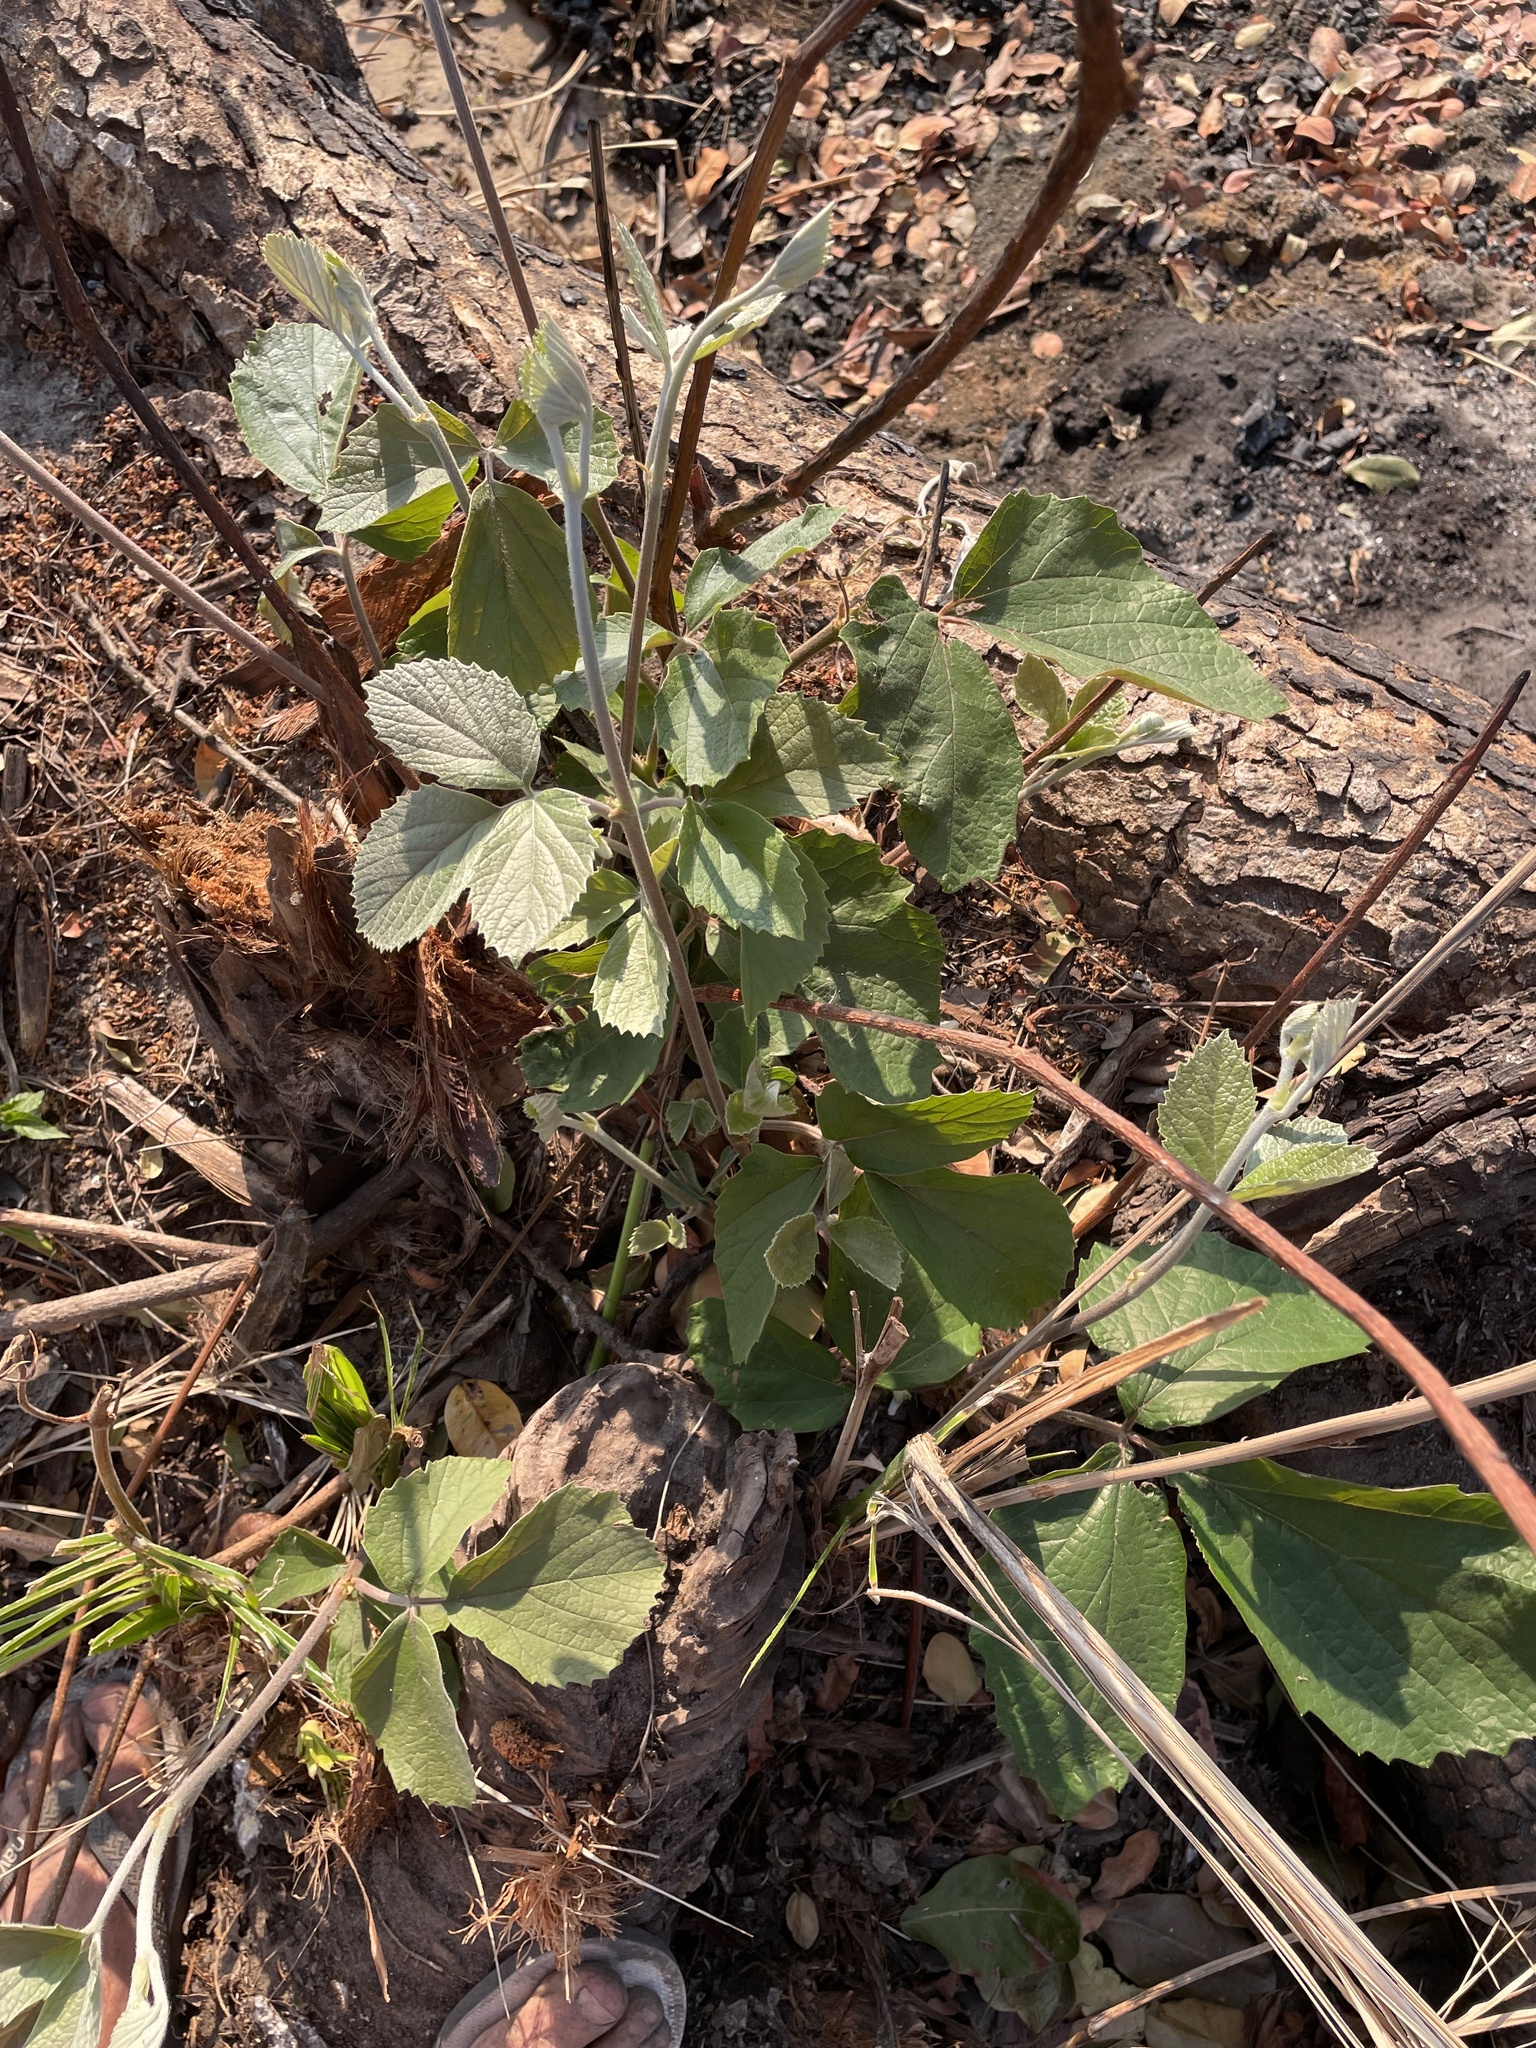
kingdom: Plantae
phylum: Tracheophyta
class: Magnoliopsida
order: Vitales
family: Vitaceae
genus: Rhoicissus
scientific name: Rhoicissus tridentata
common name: Common forest grape
